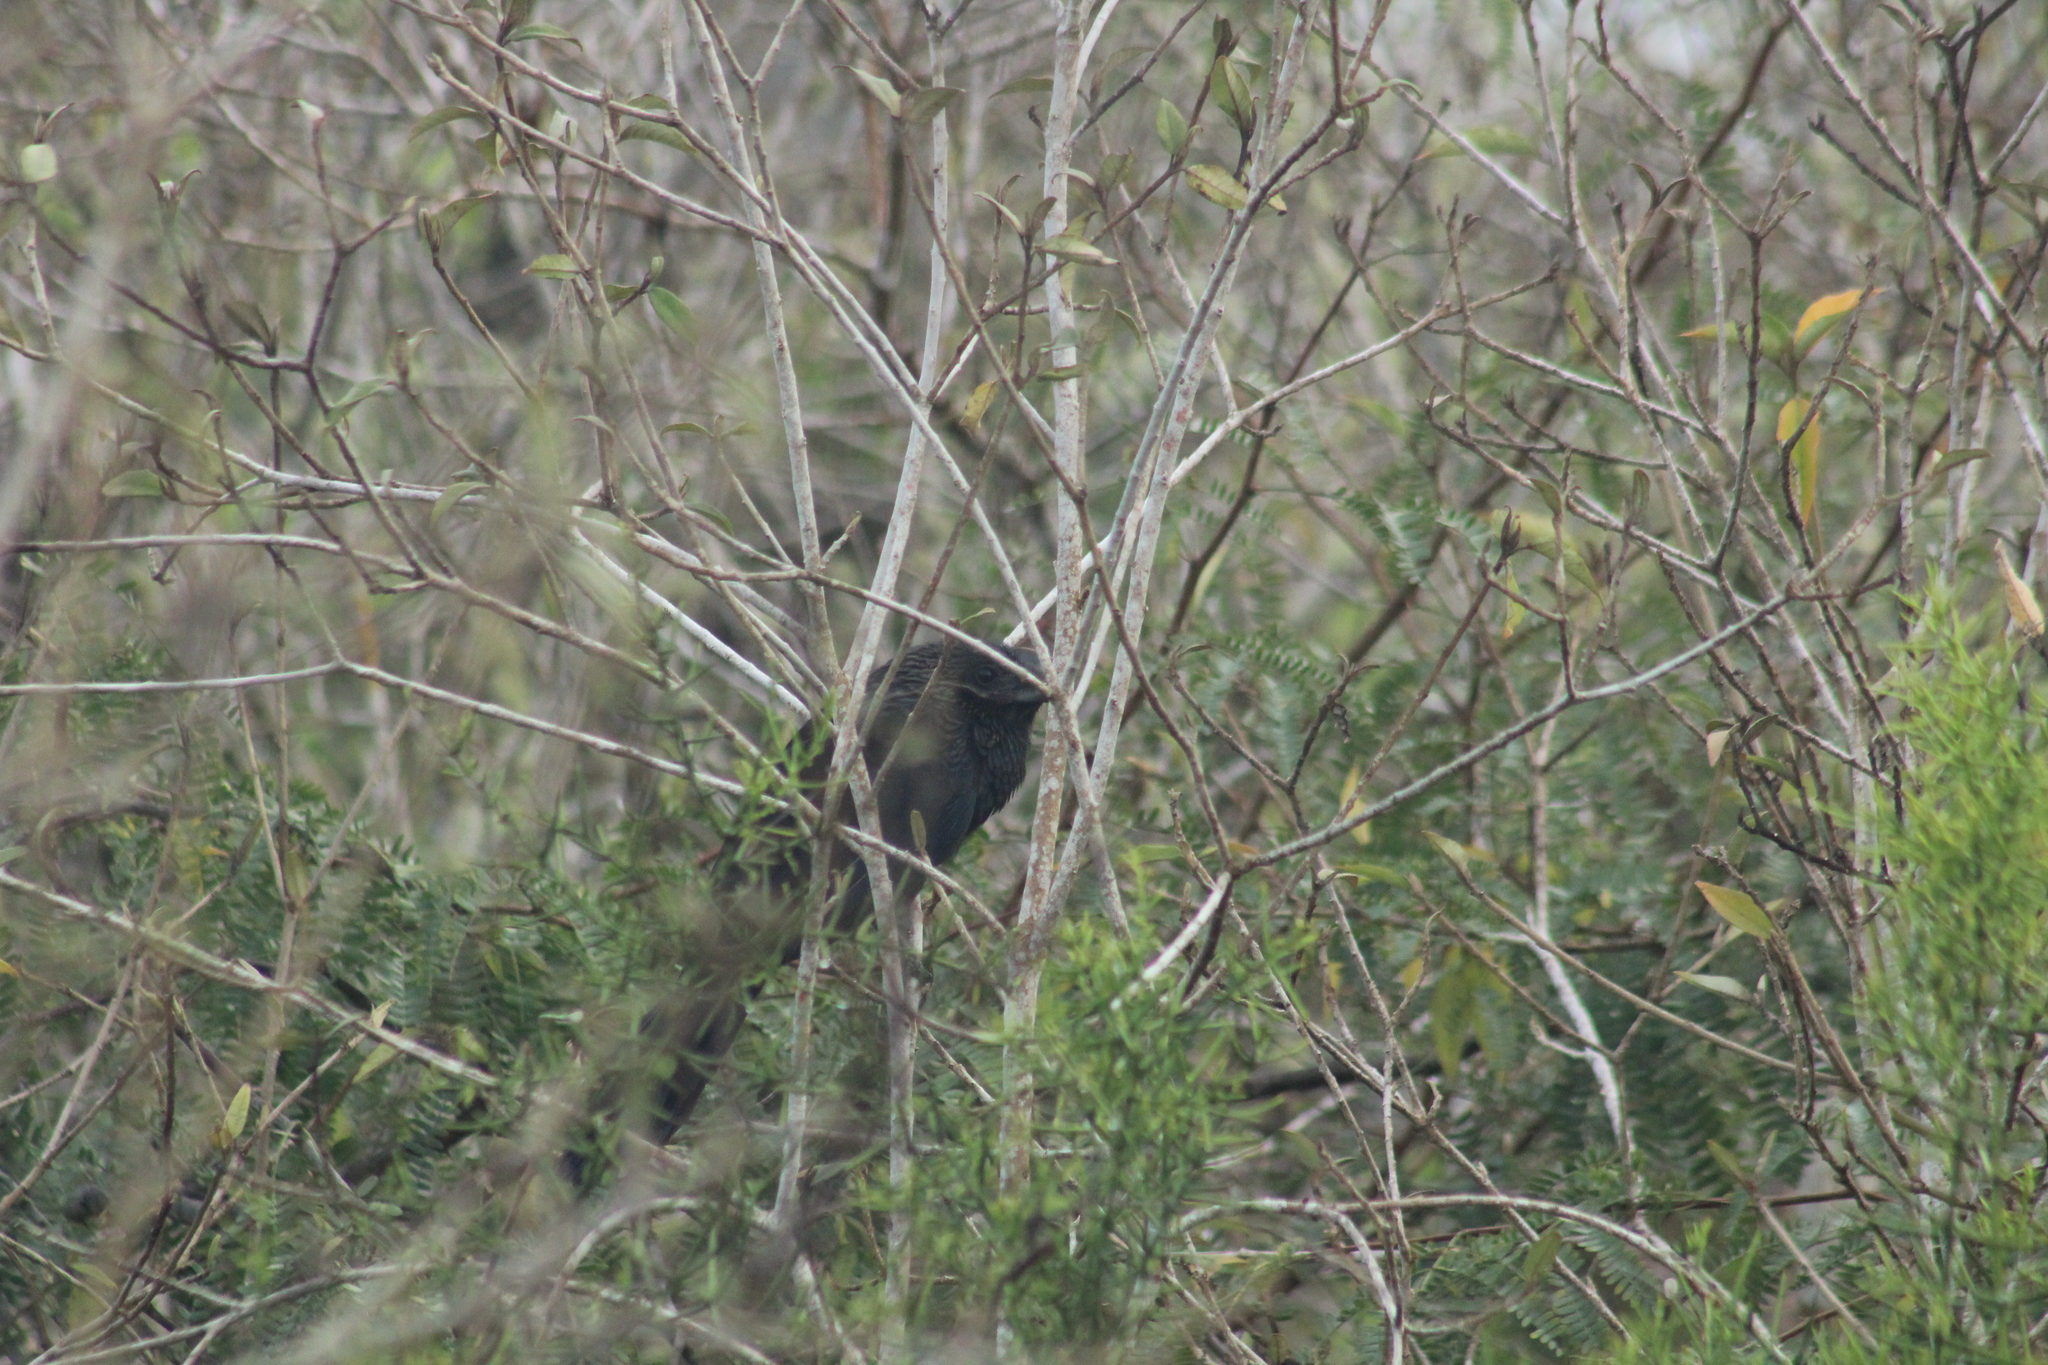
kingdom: Animalia
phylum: Chordata
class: Aves
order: Cuculiformes
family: Cuculidae
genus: Crotophaga
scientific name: Crotophaga ani
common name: Smooth-billed ani
